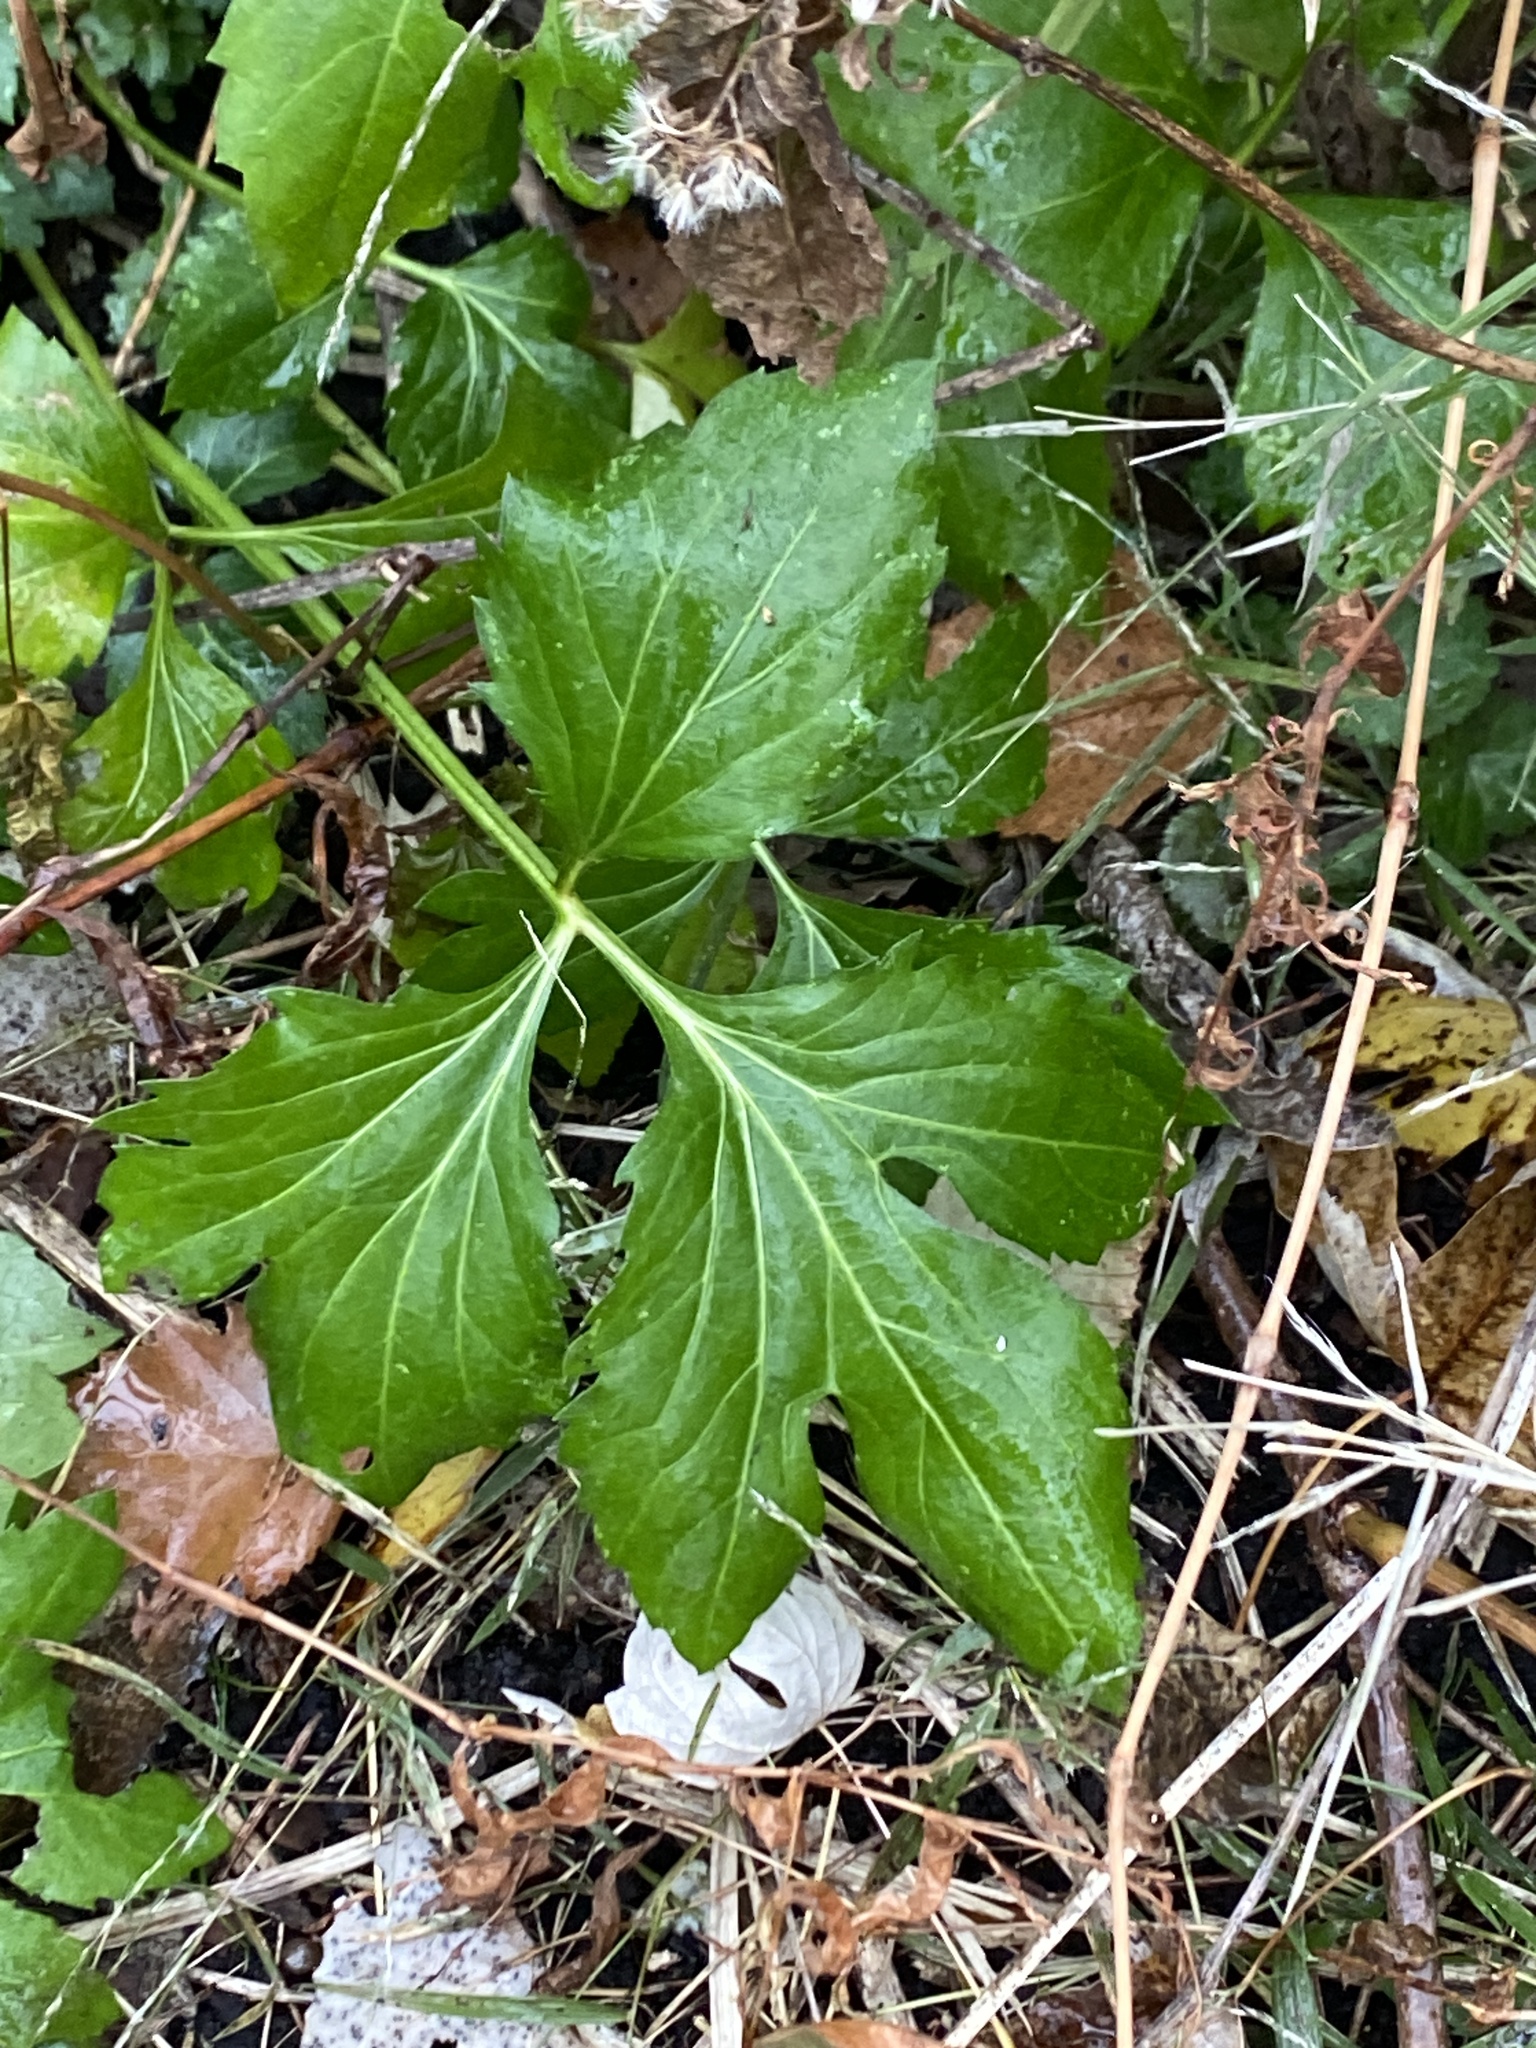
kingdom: Plantae
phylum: Tracheophyta
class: Magnoliopsida
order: Asterales
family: Asteraceae
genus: Rudbeckia
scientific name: Rudbeckia laciniata
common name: Coneflower
